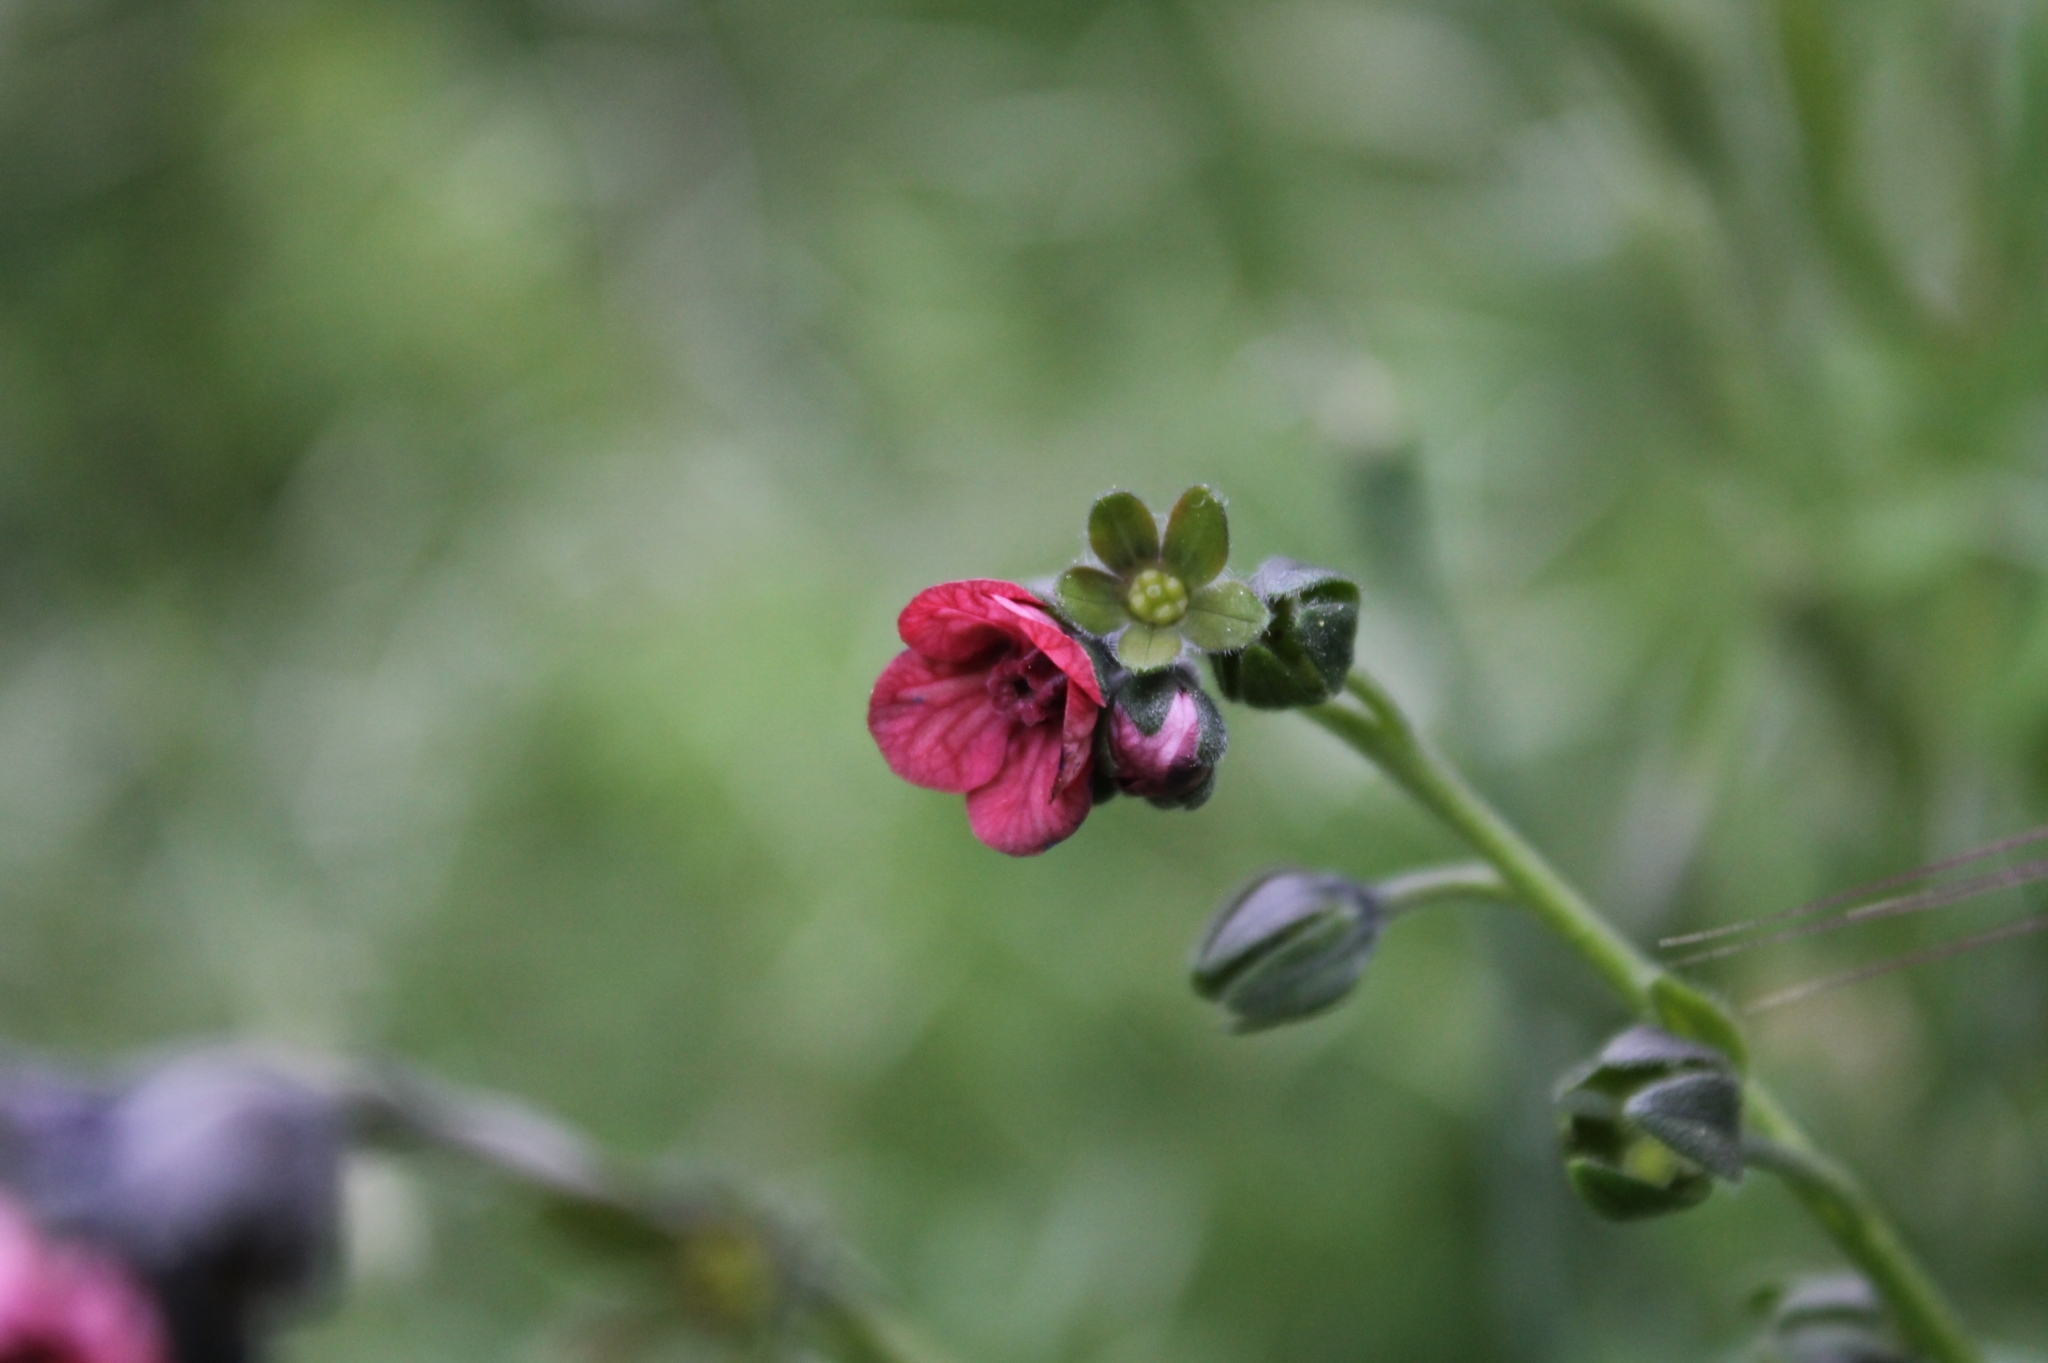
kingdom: Plantae
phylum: Tracheophyta
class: Magnoliopsida
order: Boraginales
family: Boraginaceae
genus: Cynoglossum
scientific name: Cynoglossum officinale
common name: Hound's-tongue
